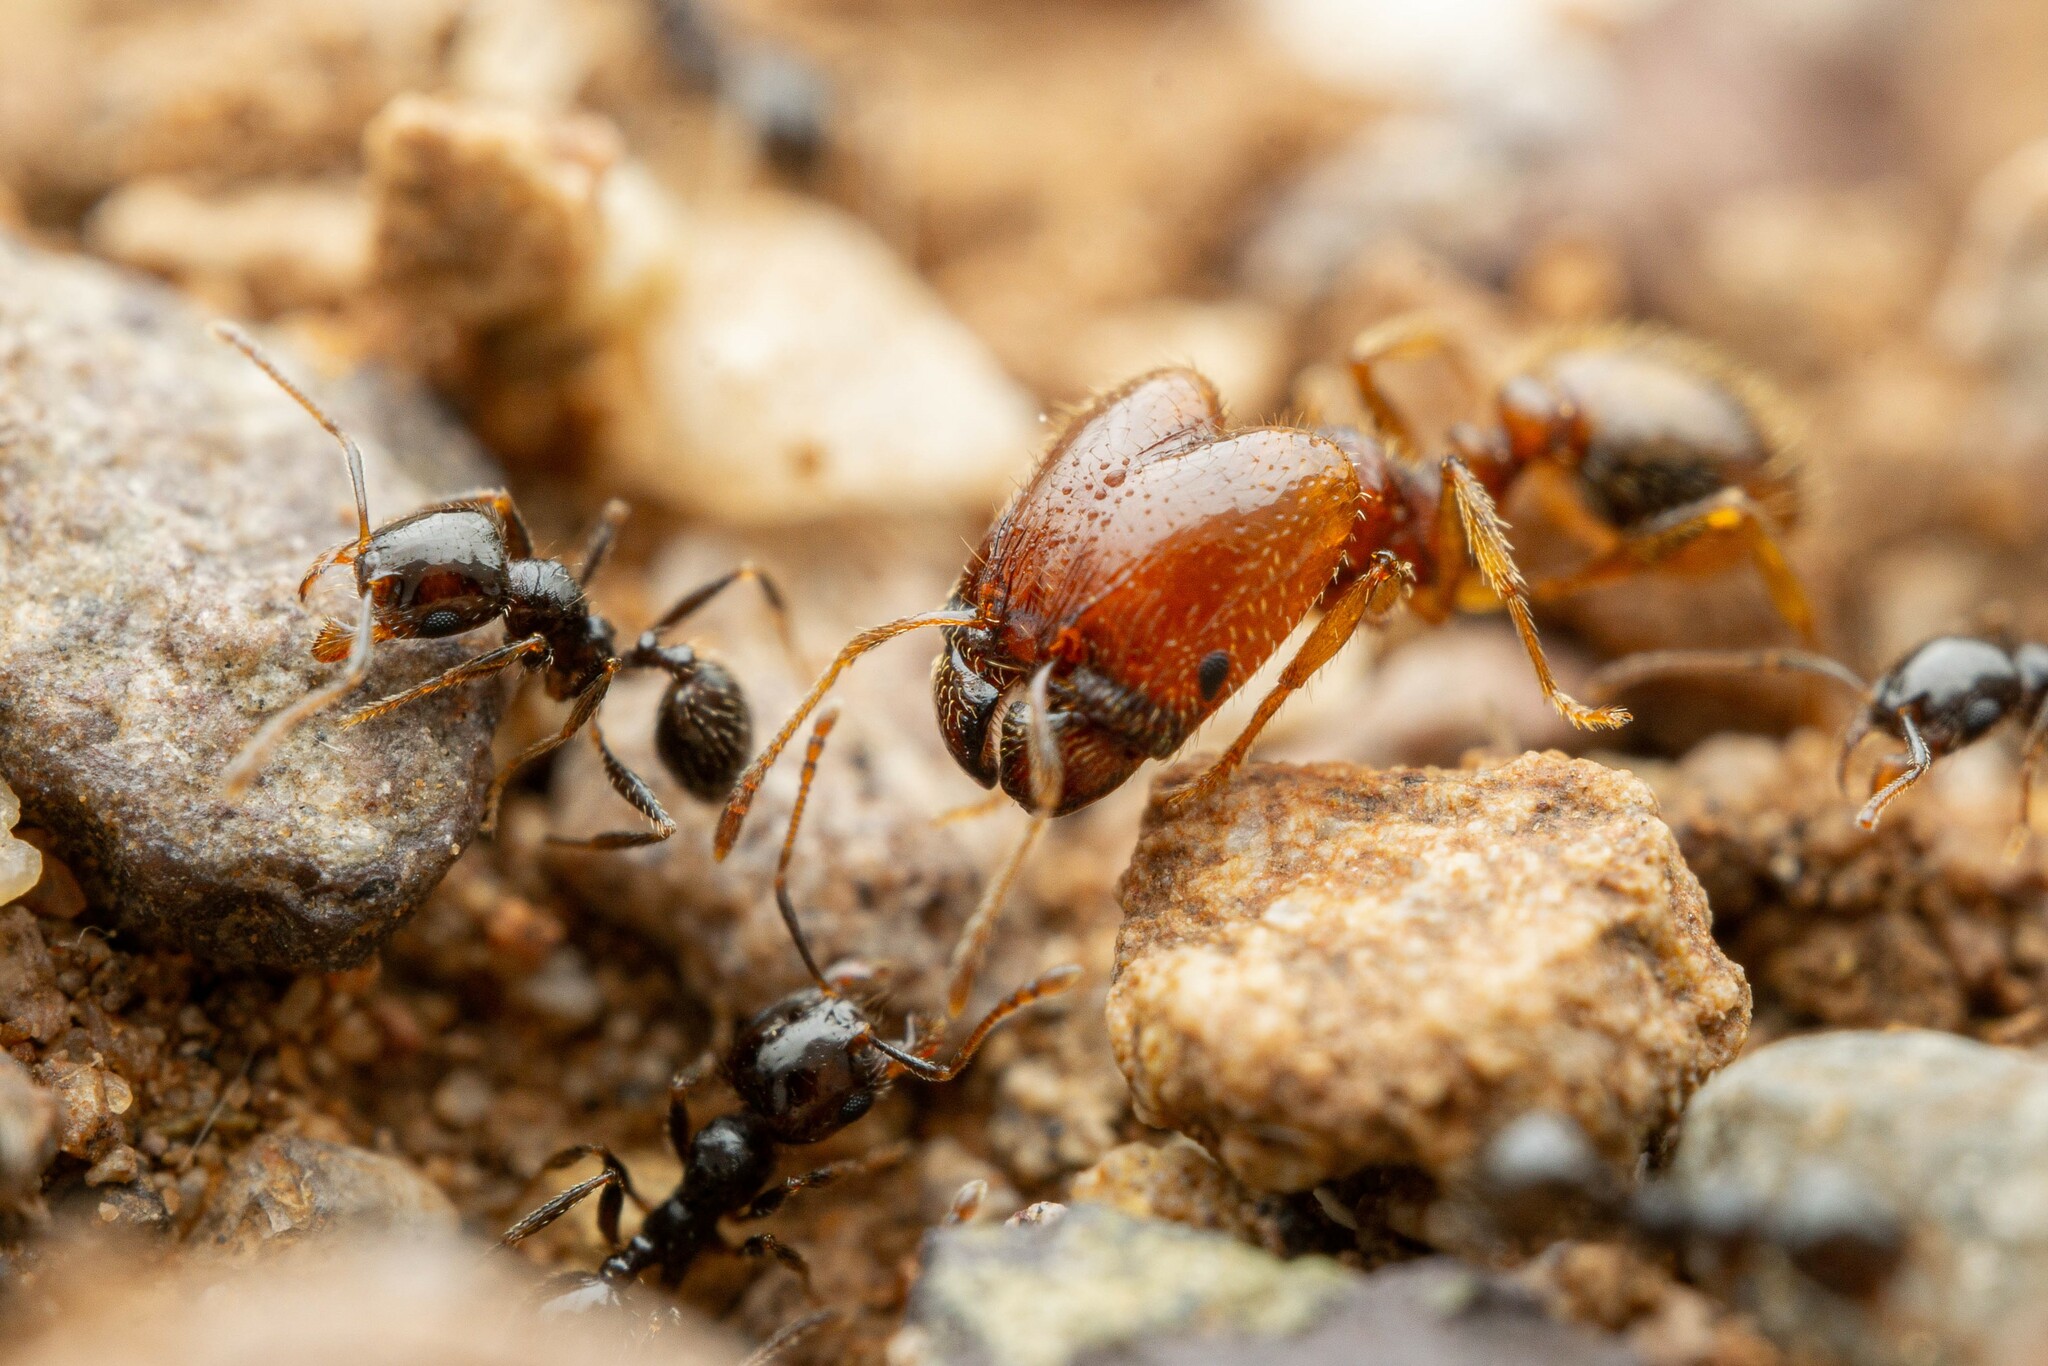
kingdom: Animalia
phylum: Arthropoda
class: Insecta
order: Hymenoptera
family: Formicidae
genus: Pheidole
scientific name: Pheidole xerophila
